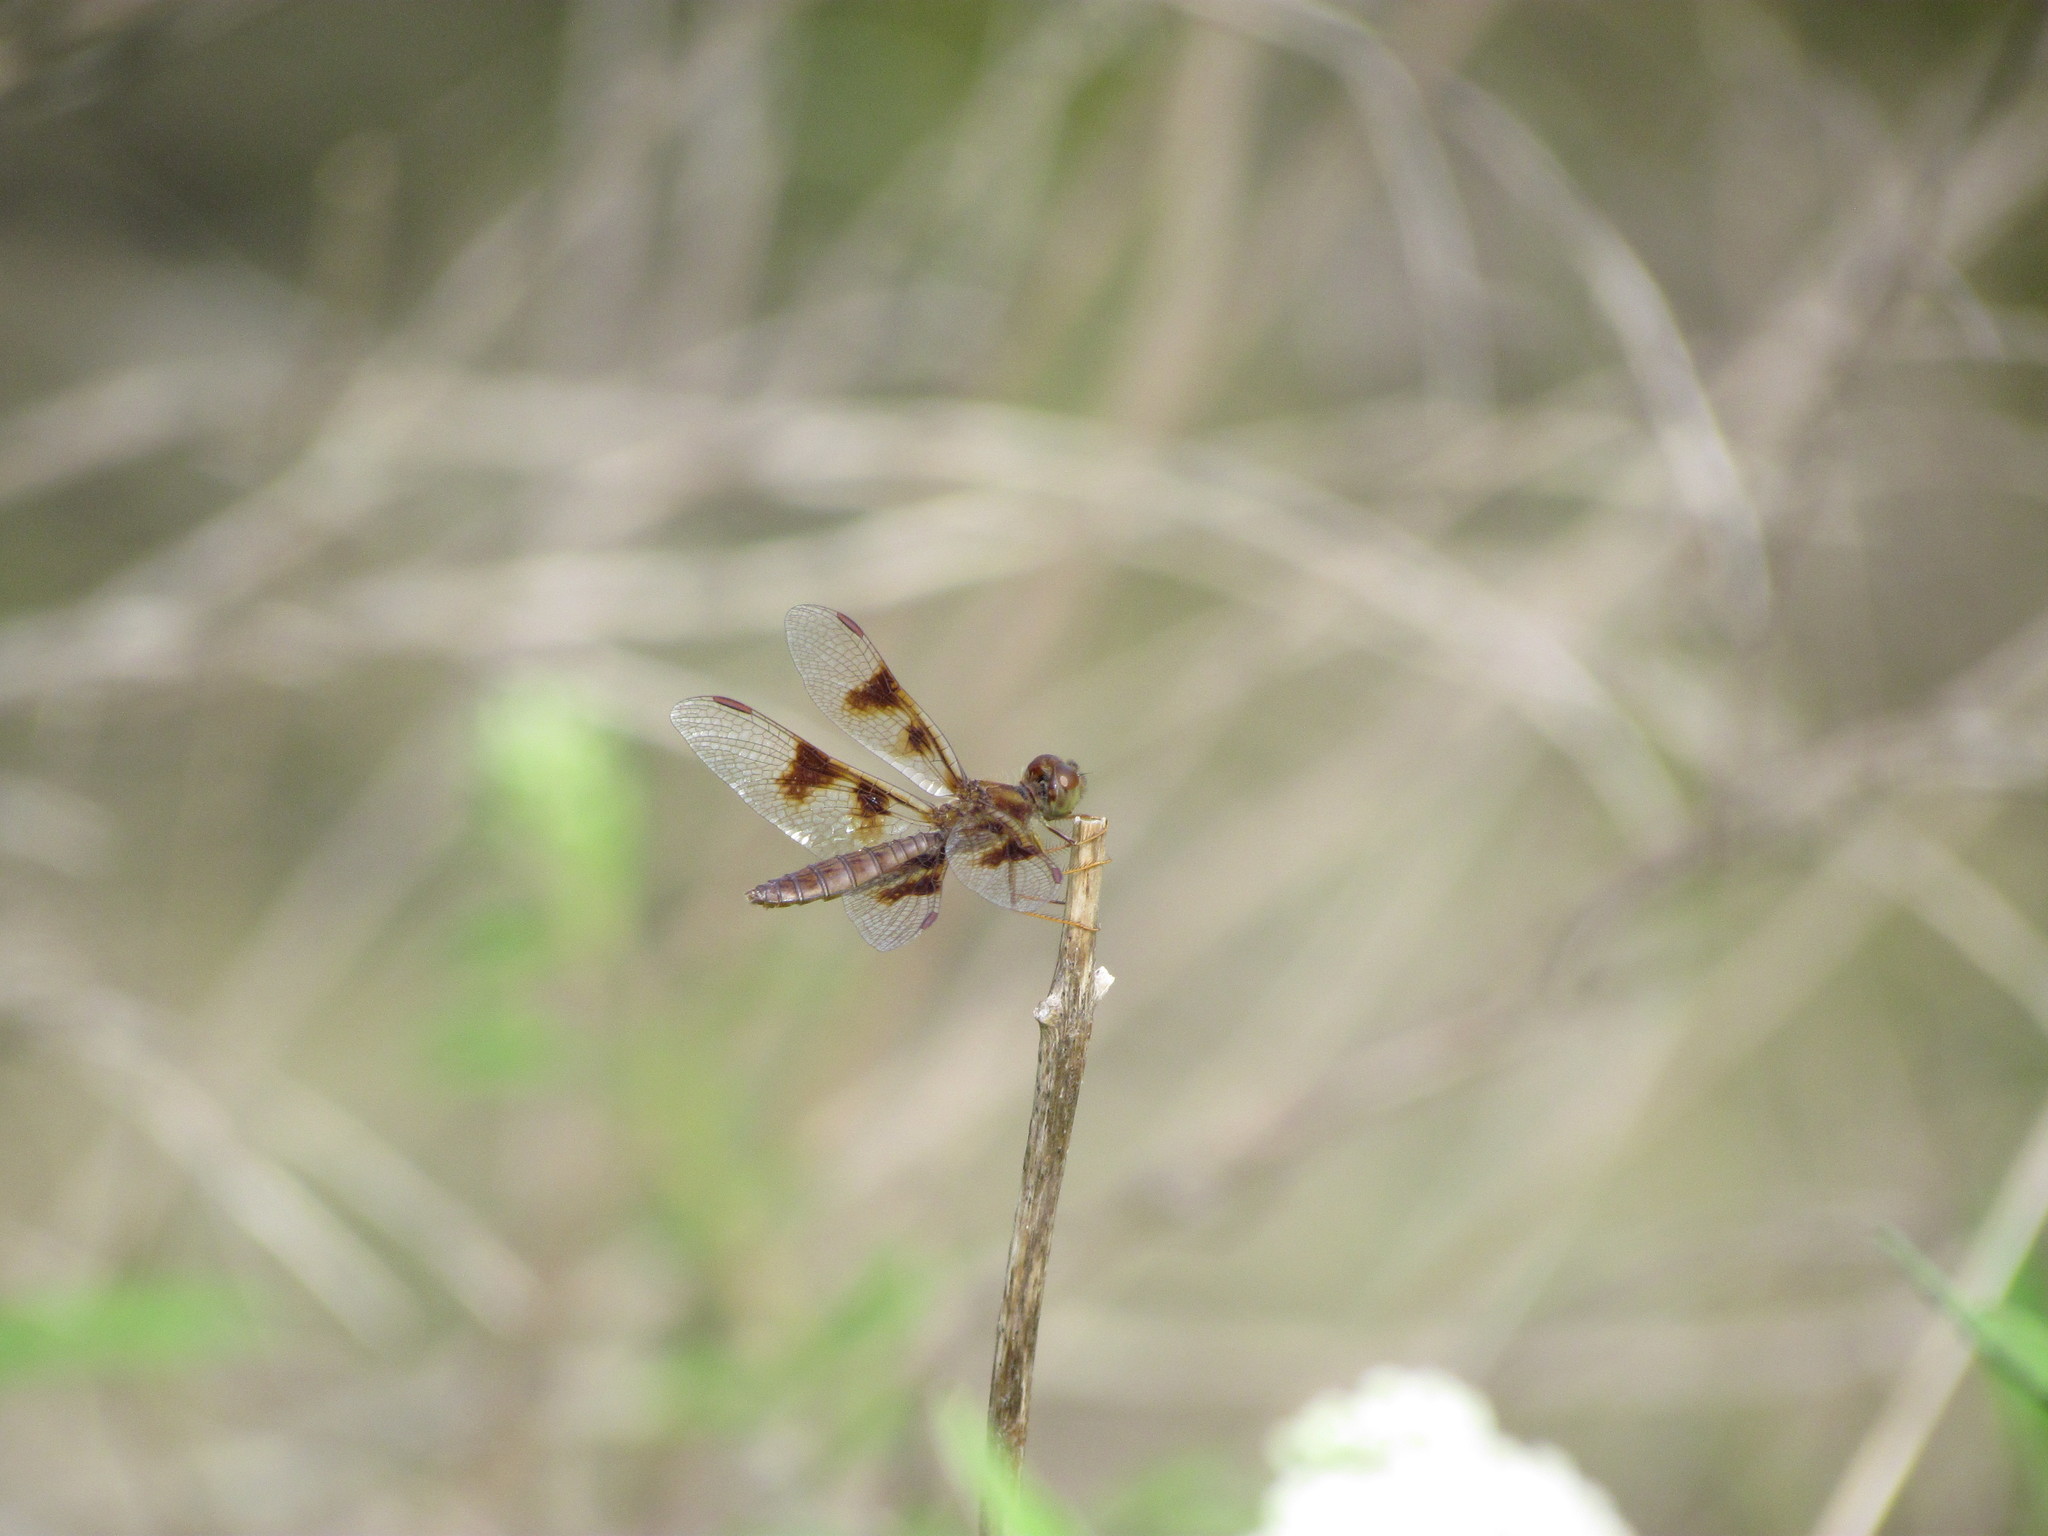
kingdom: Animalia
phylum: Arthropoda
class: Insecta
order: Odonata
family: Libellulidae
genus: Perithemis
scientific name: Perithemis tenera
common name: Eastern amberwing
